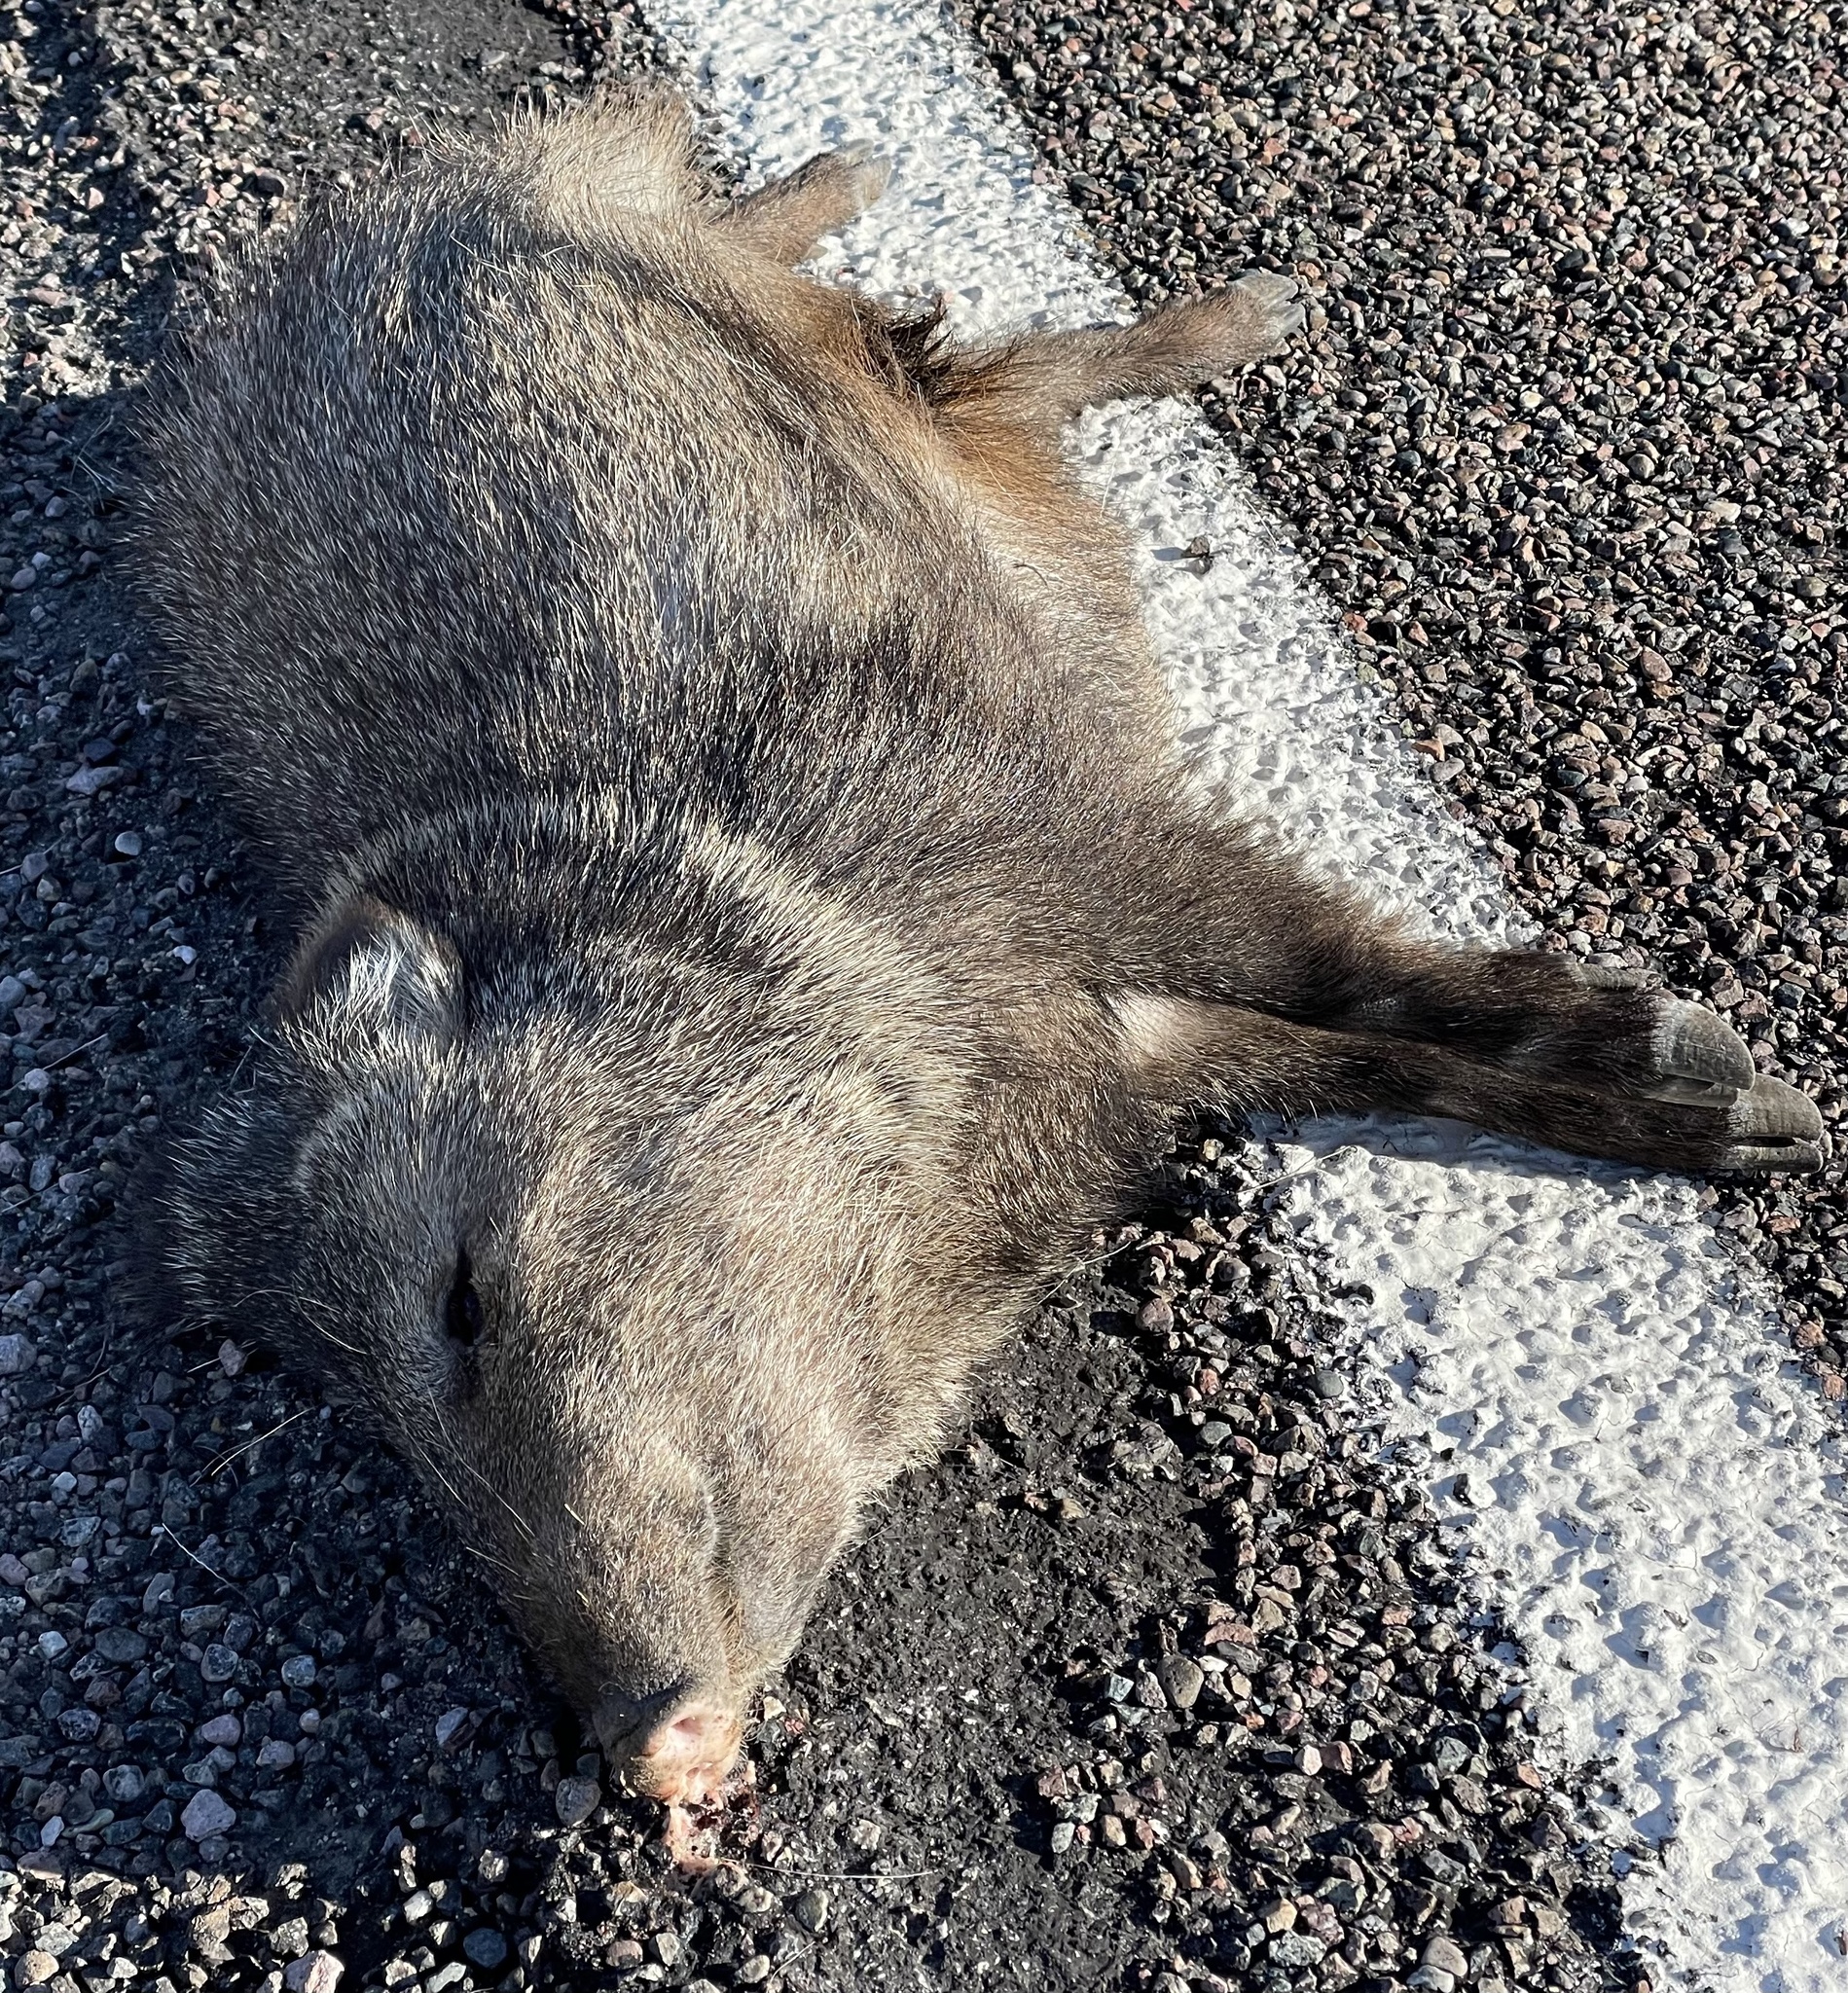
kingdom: Animalia
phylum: Chordata
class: Mammalia
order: Artiodactyla
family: Tayassuidae
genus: Pecari
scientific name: Pecari tajacu
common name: Collared peccary
